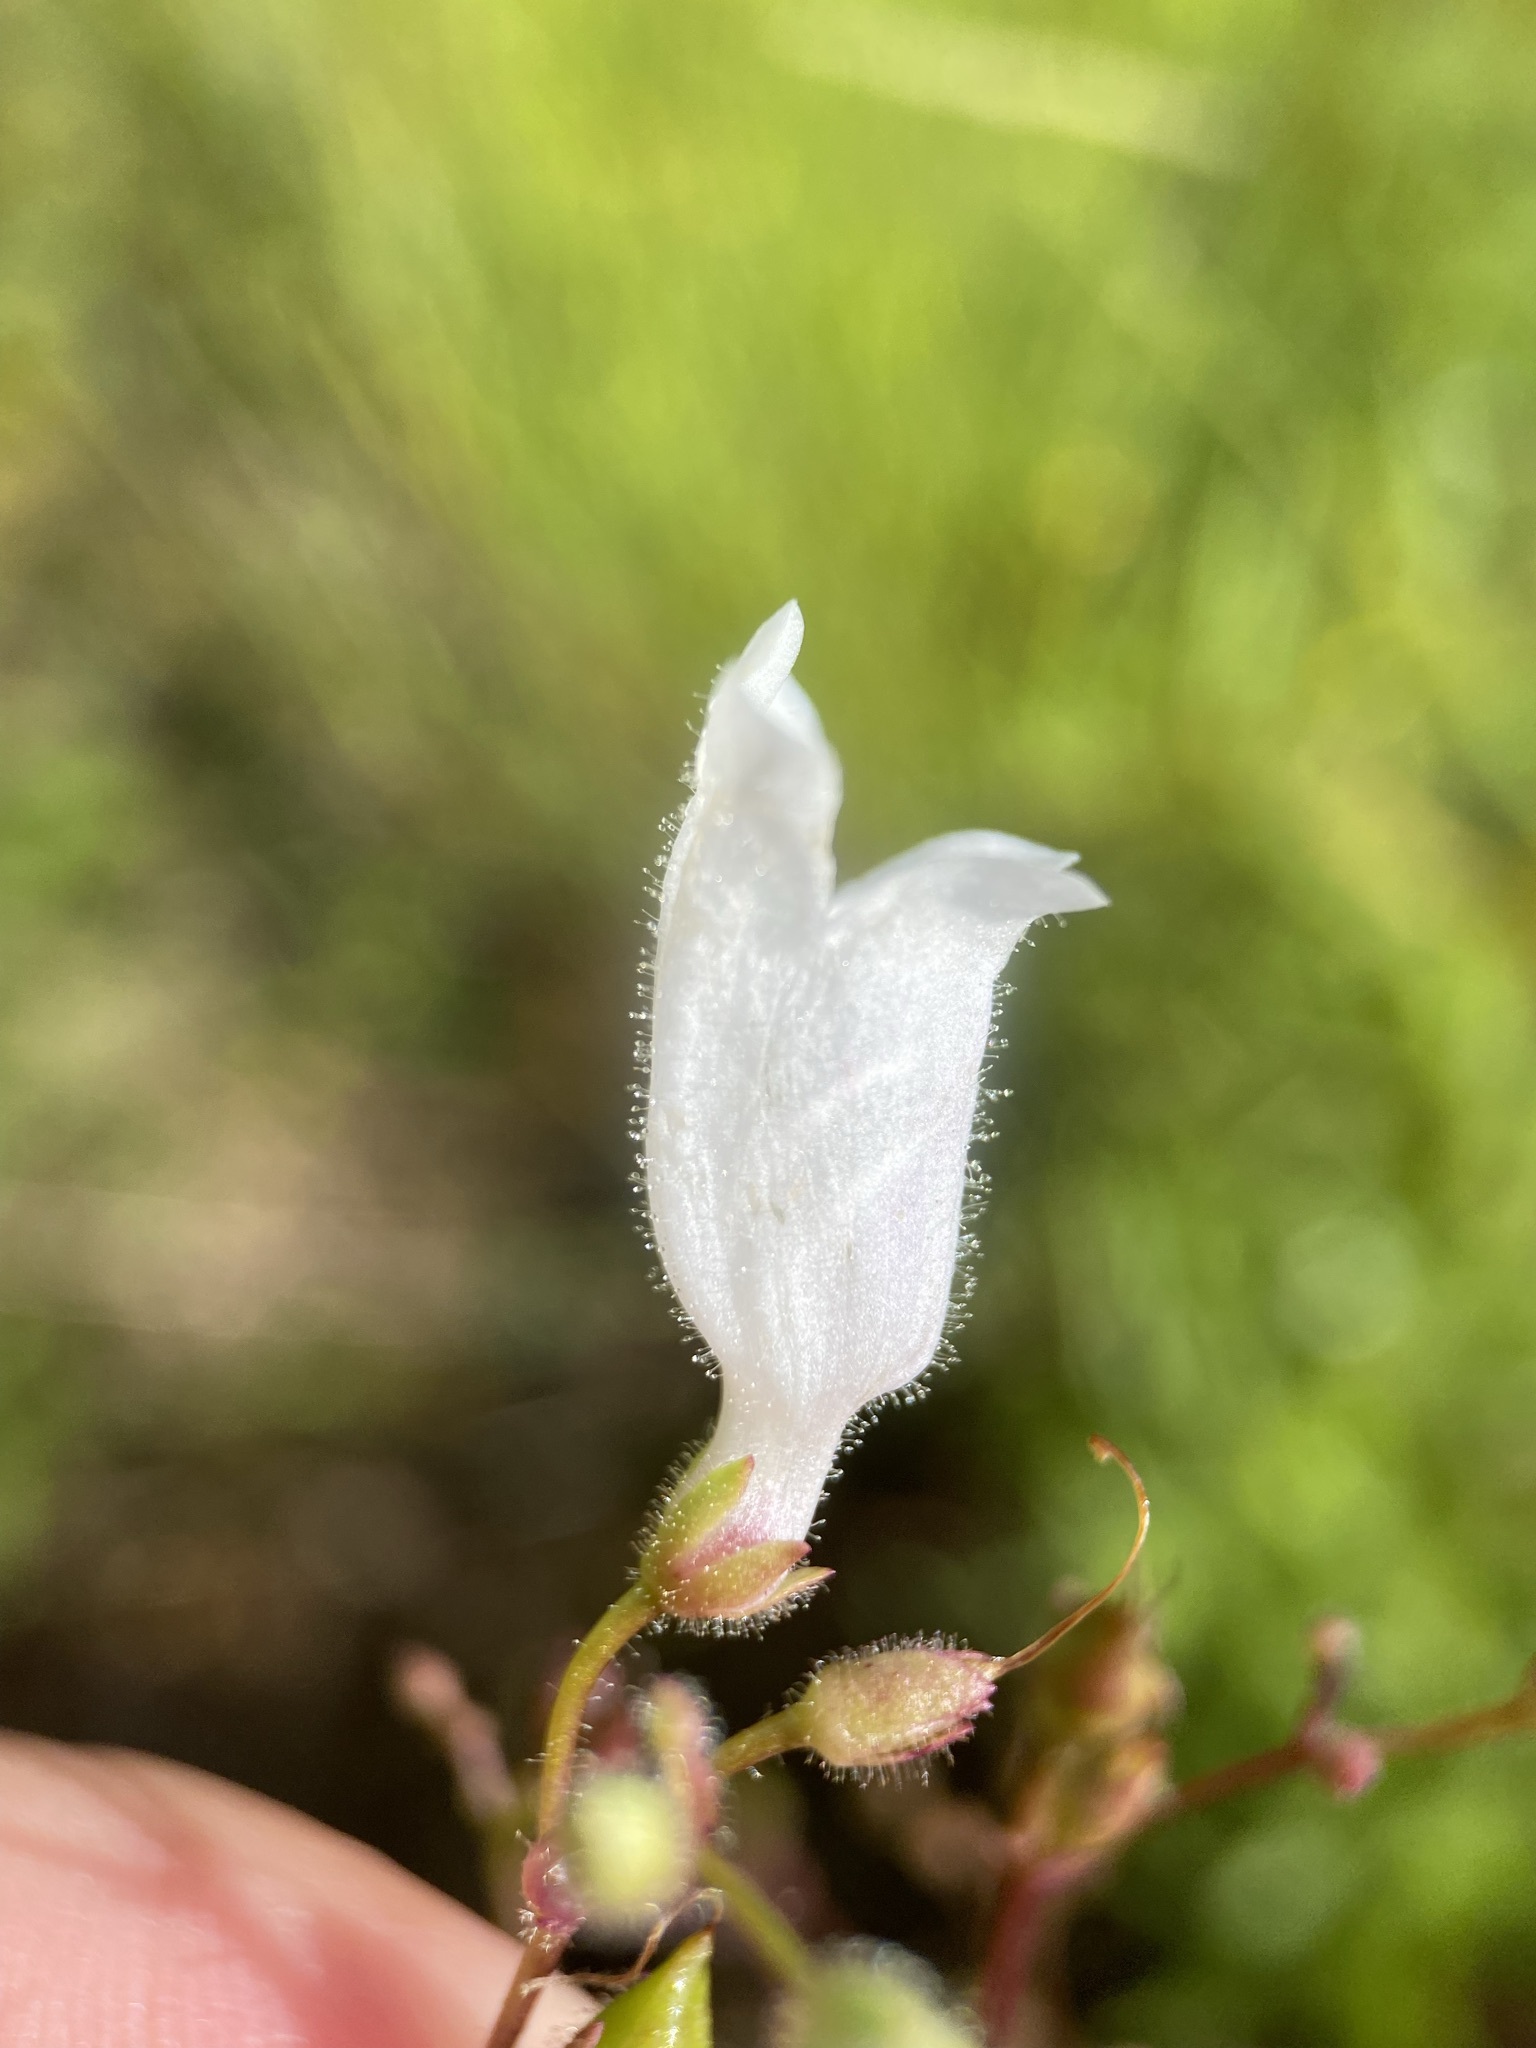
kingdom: Plantae
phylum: Tracheophyta
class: Magnoliopsida
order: Lamiales
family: Plantaginaceae
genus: Penstemon
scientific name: Penstemon multiflorus
